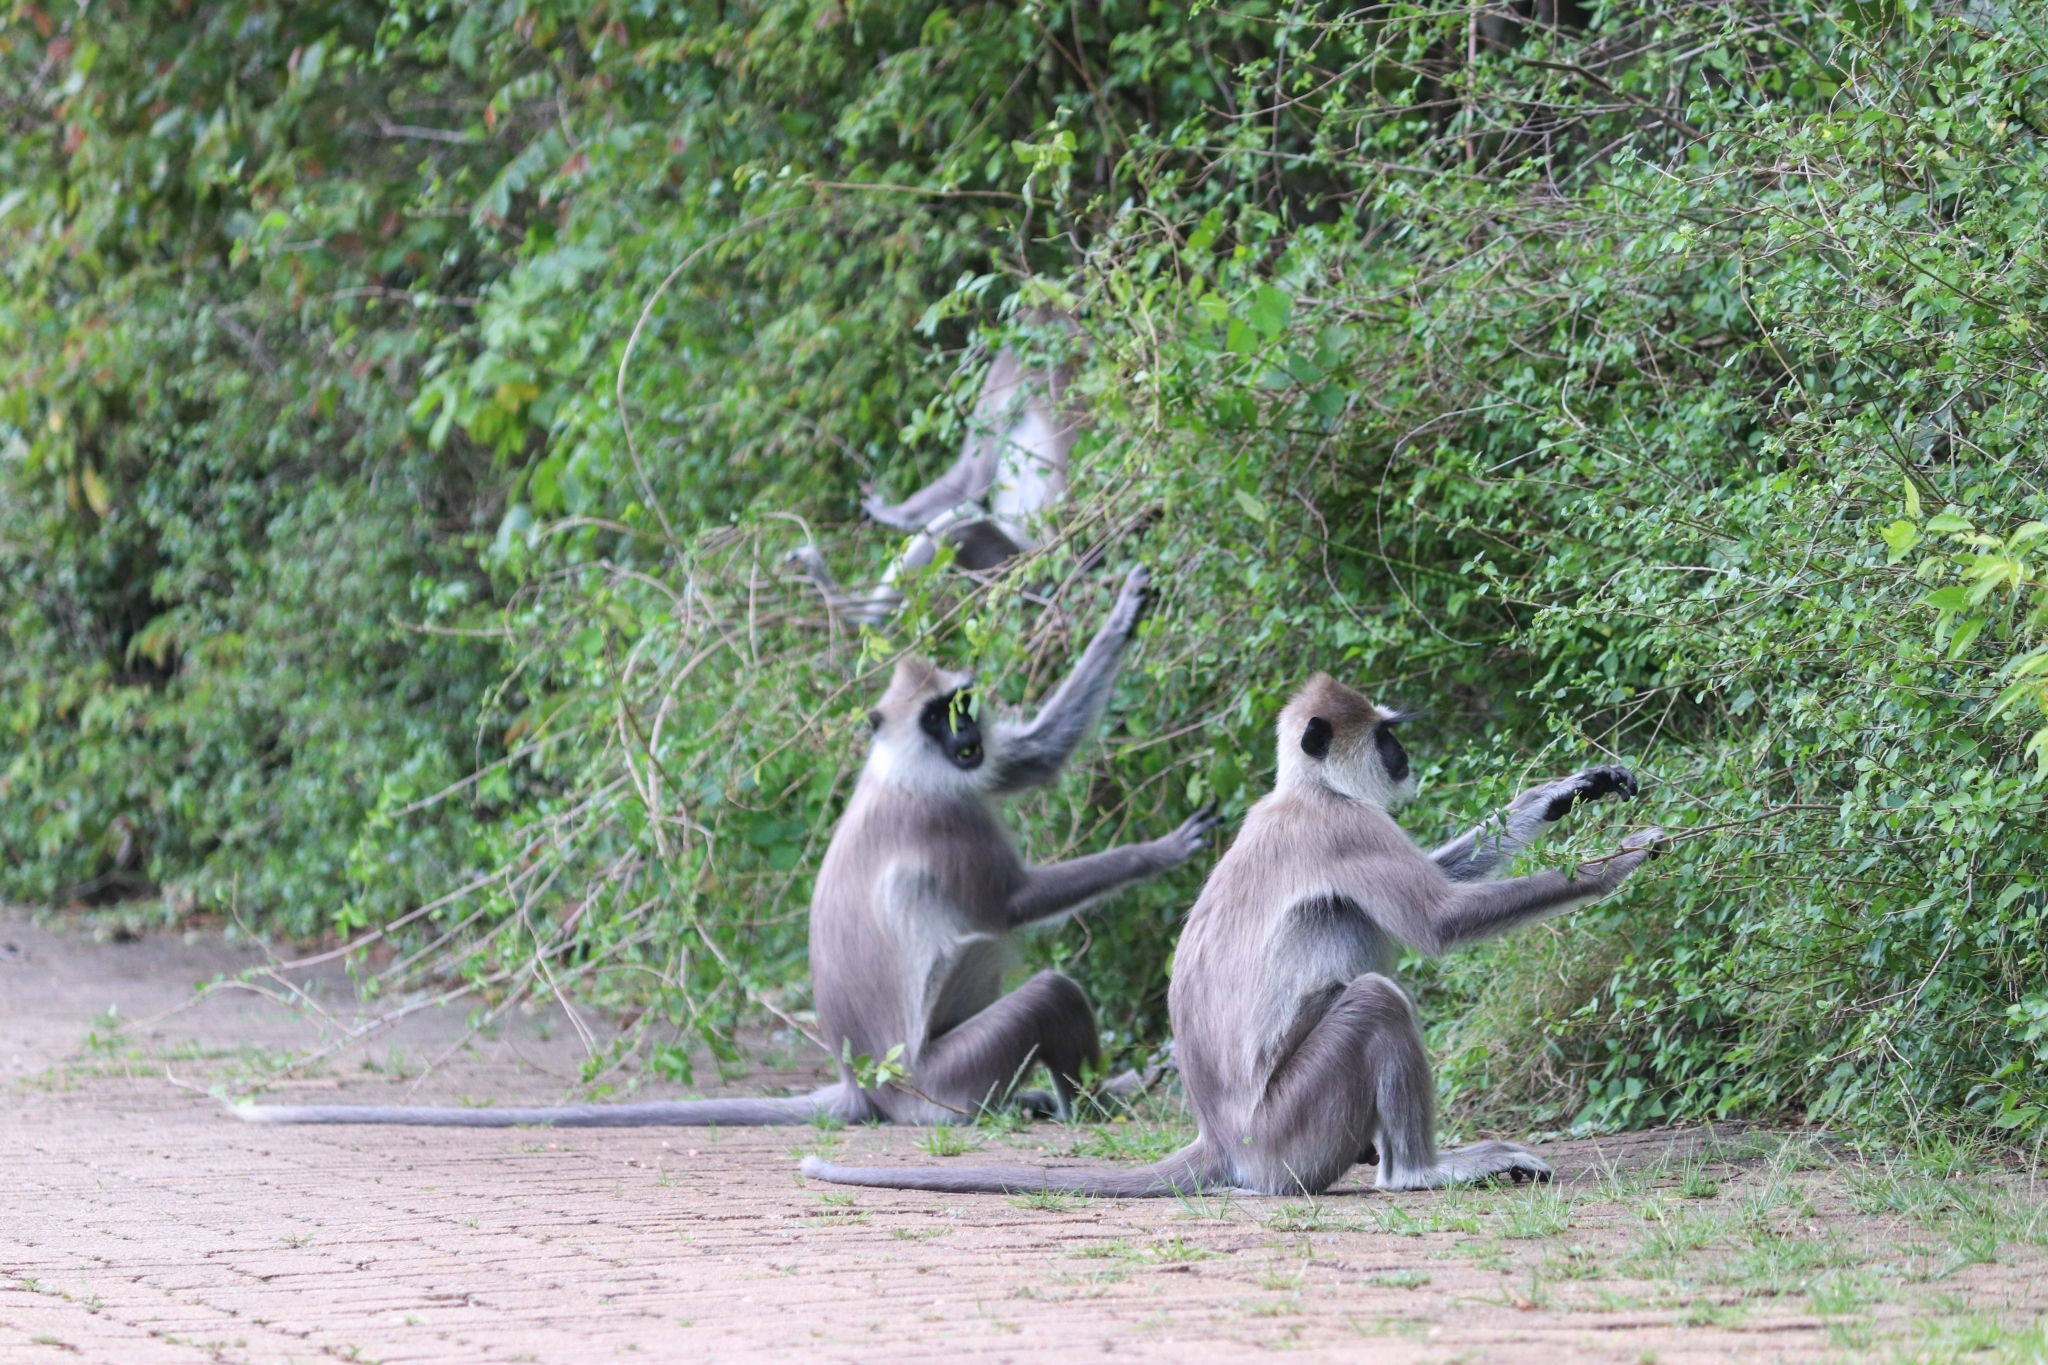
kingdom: Animalia
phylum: Chordata
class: Mammalia
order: Primates
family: Cercopithecidae
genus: Semnopithecus
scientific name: Semnopithecus priam
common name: Tufted gray langur
